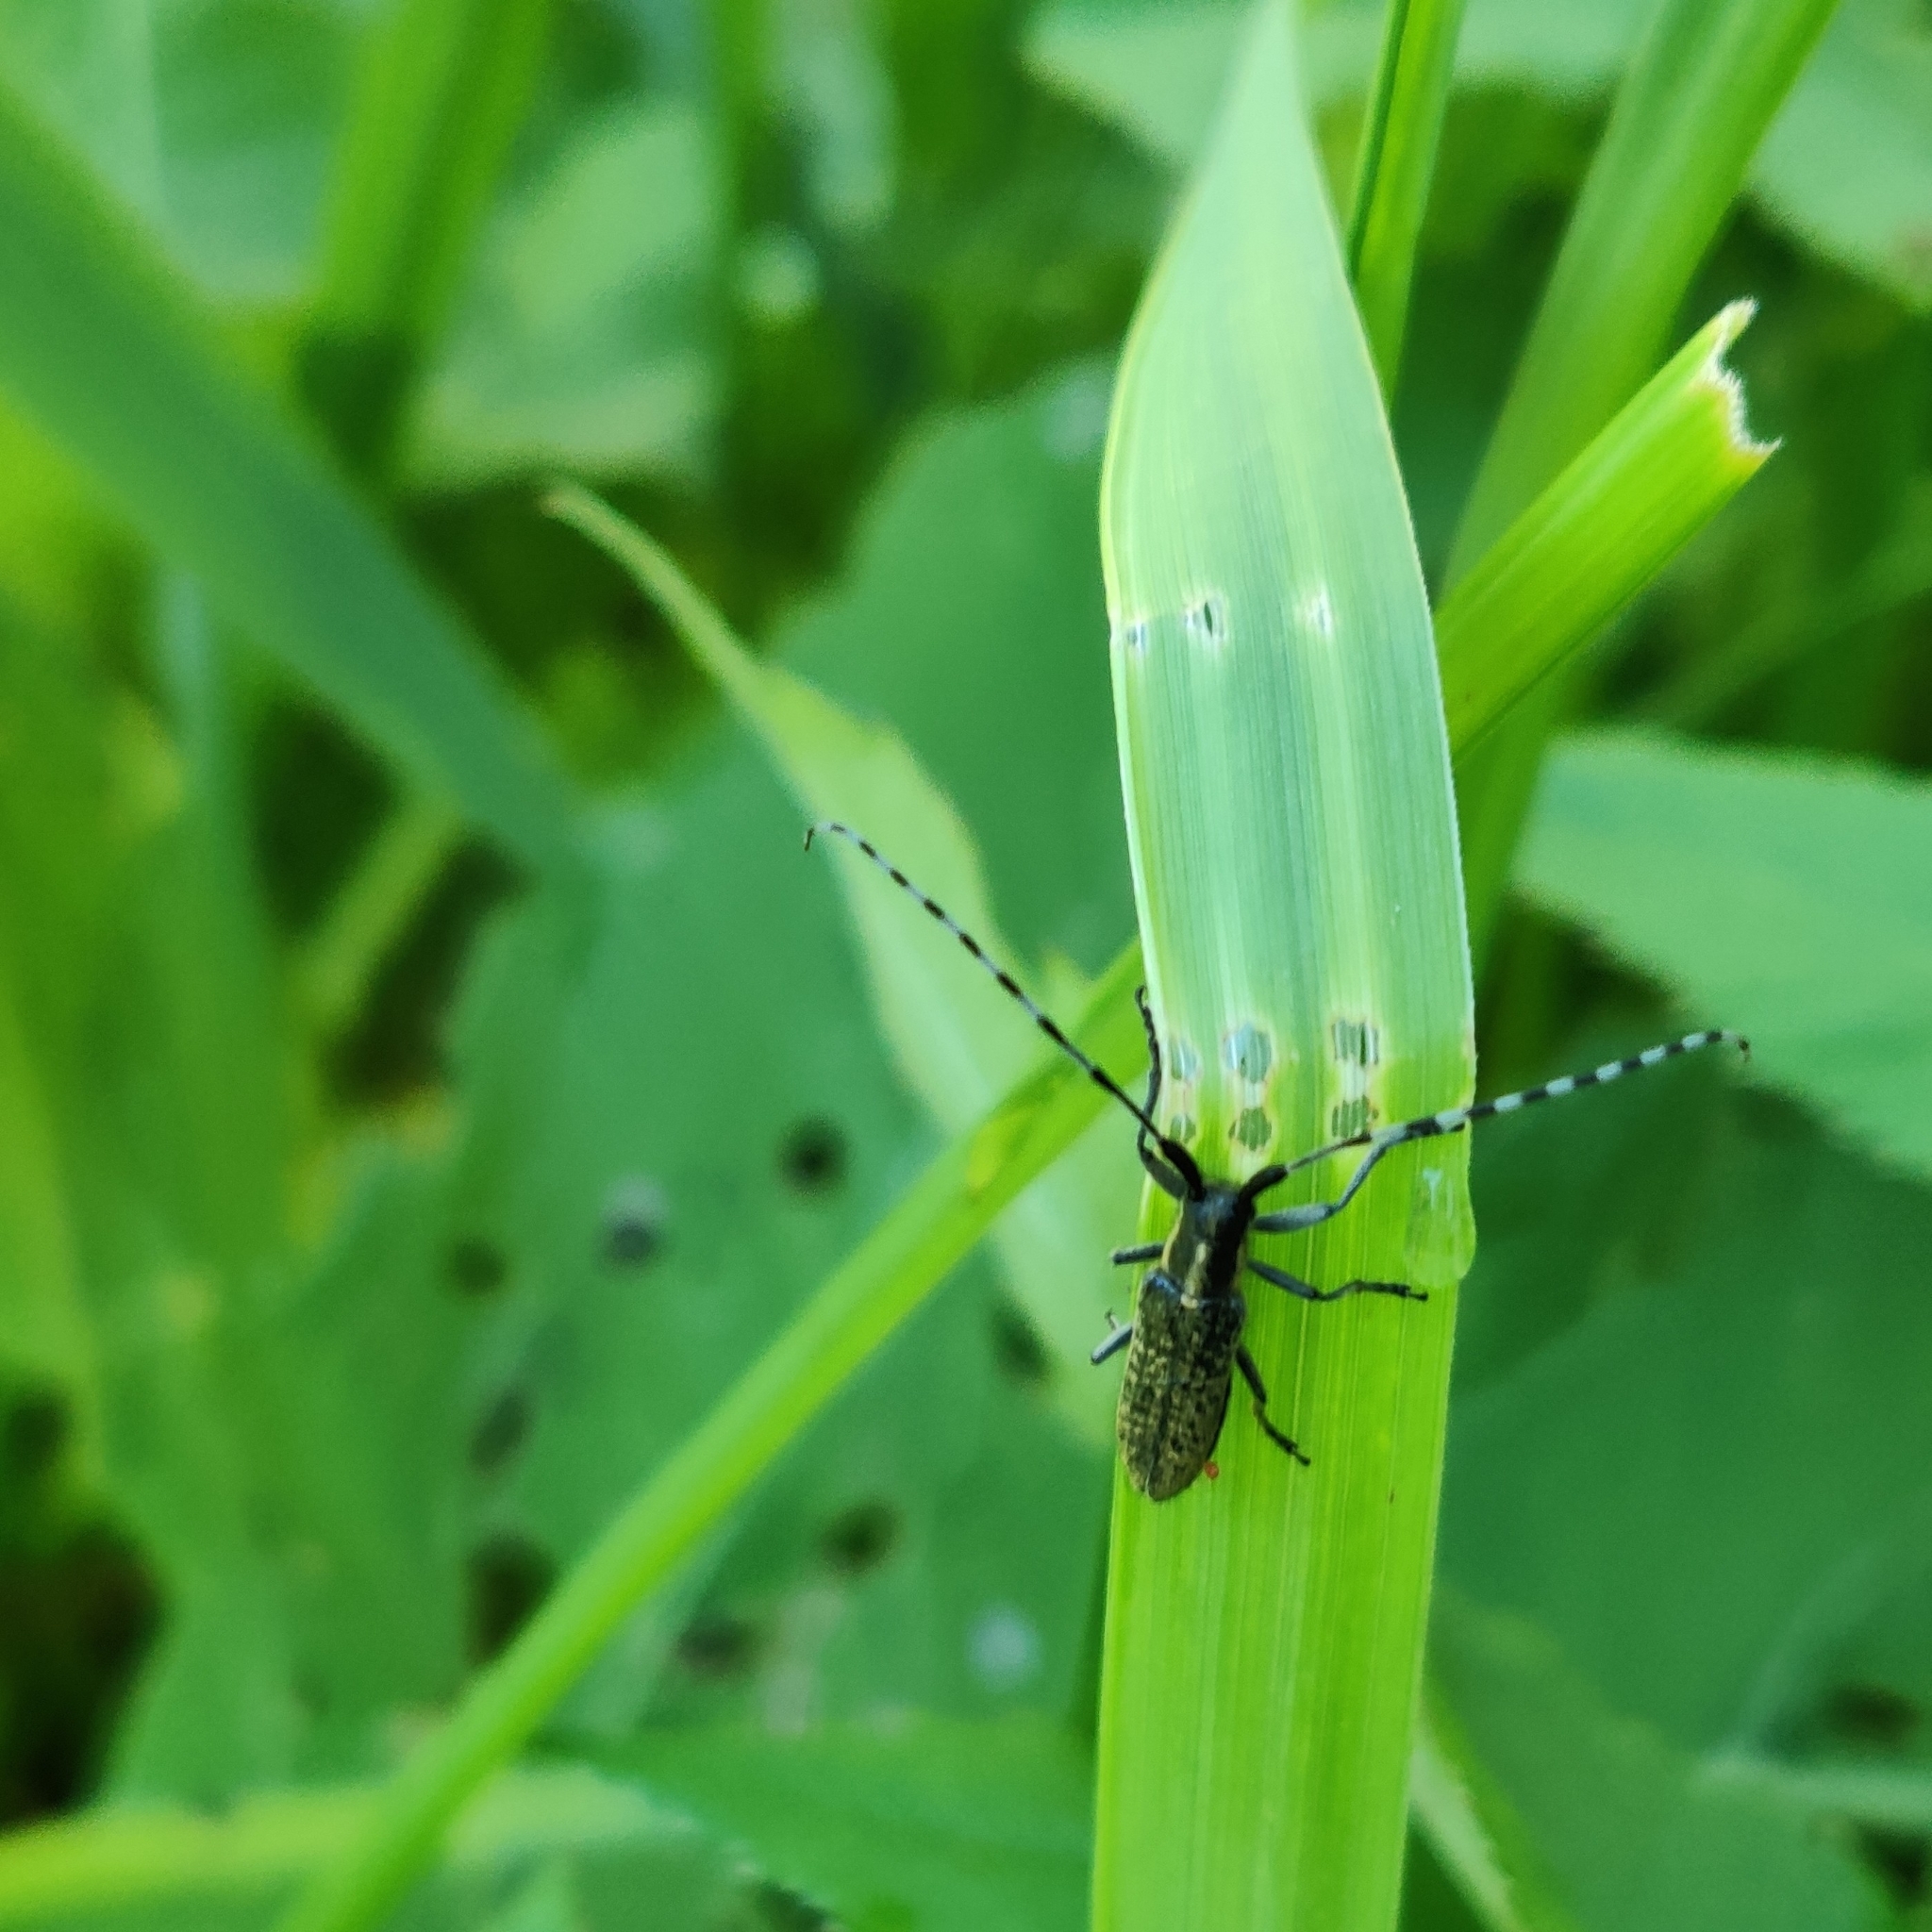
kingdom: Animalia
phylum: Arthropoda
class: Insecta
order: Coleoptera
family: Cerambycidae
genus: Agapanthia
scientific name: Agapanthia villosoviridescens
